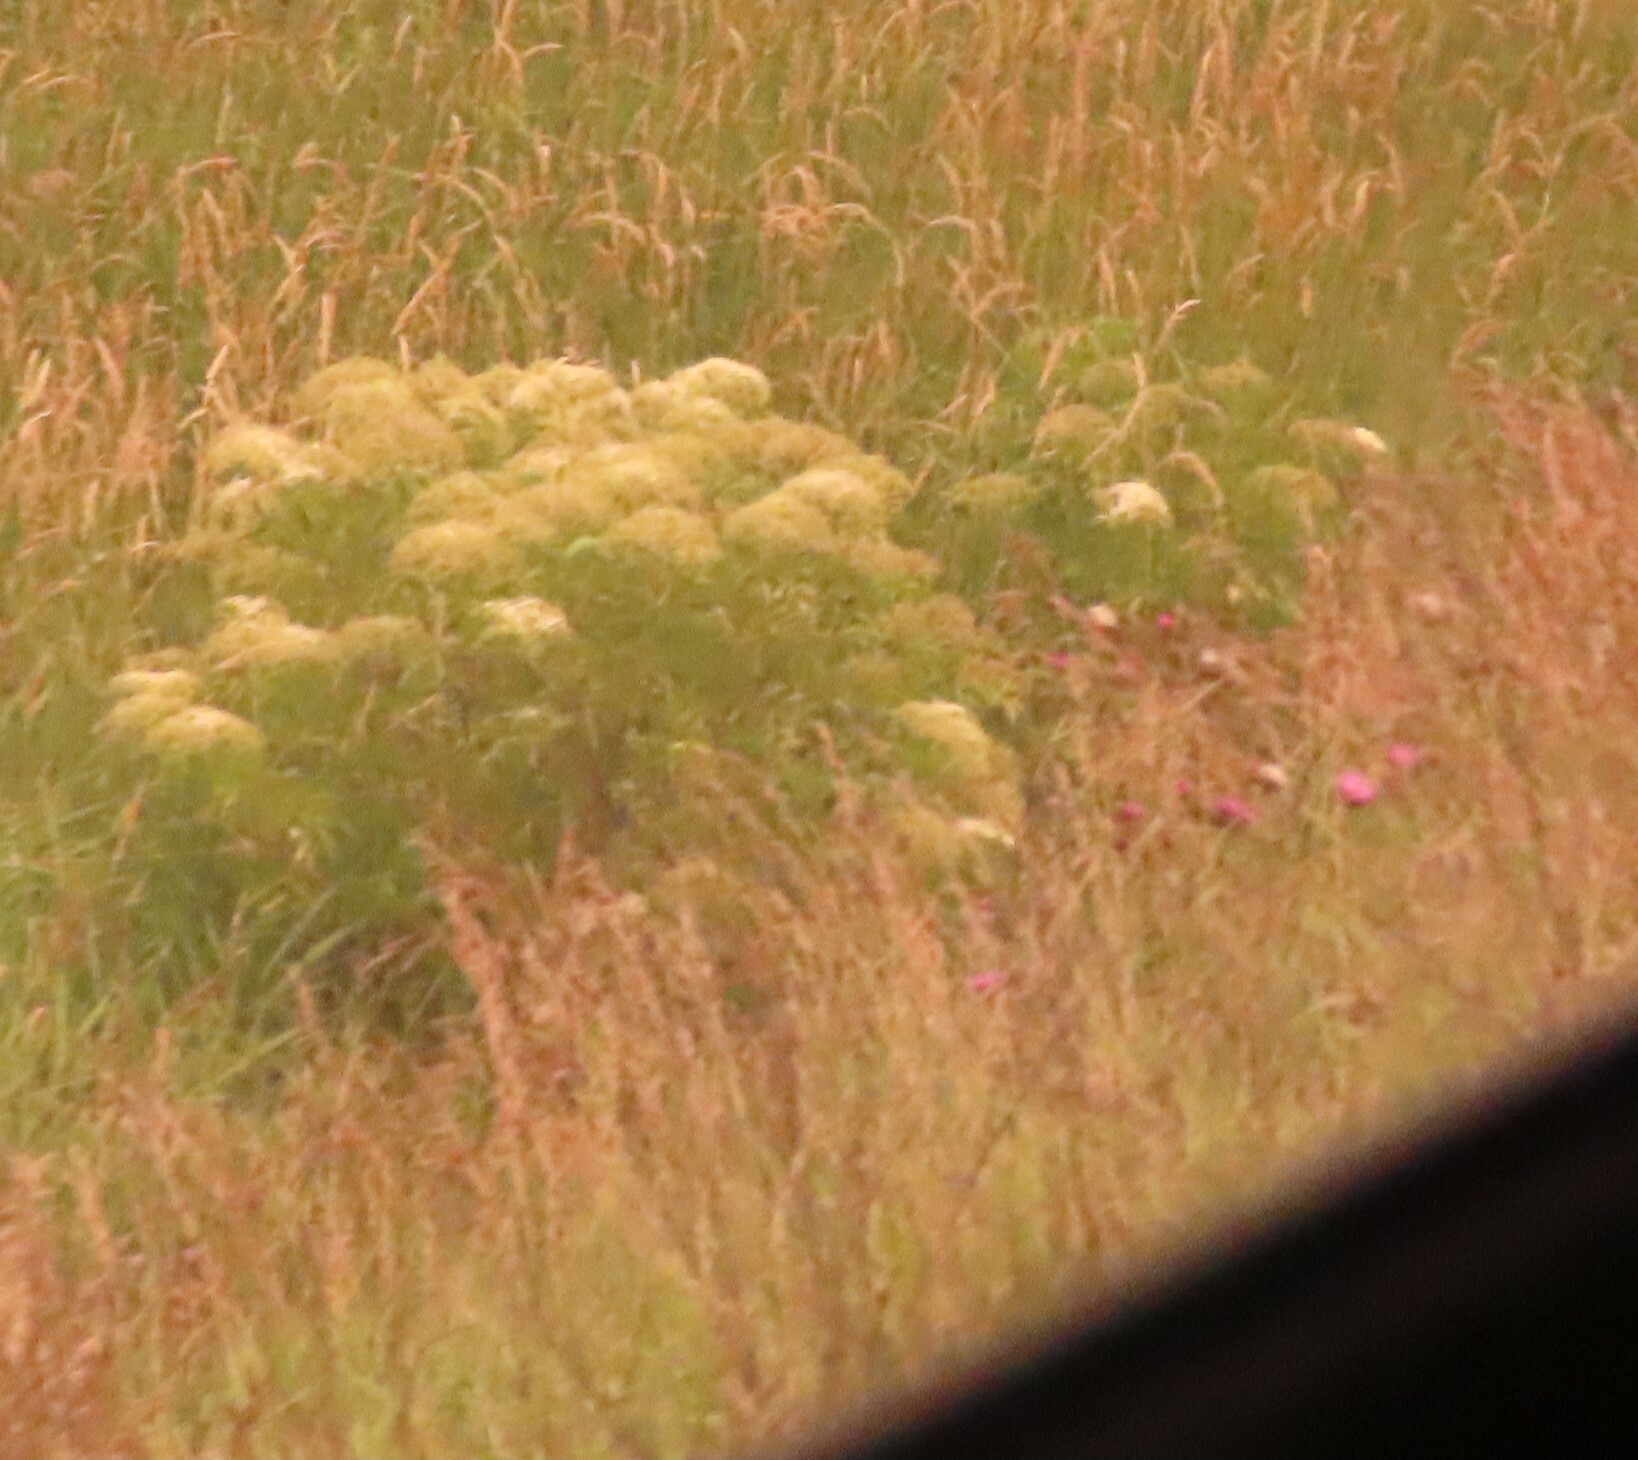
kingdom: Plantae
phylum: Tracheophyta
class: Magnoliopsida
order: Dipsacales
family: Viburnaceae
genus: Sambucus
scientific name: Sambucus canadensis
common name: American elder
